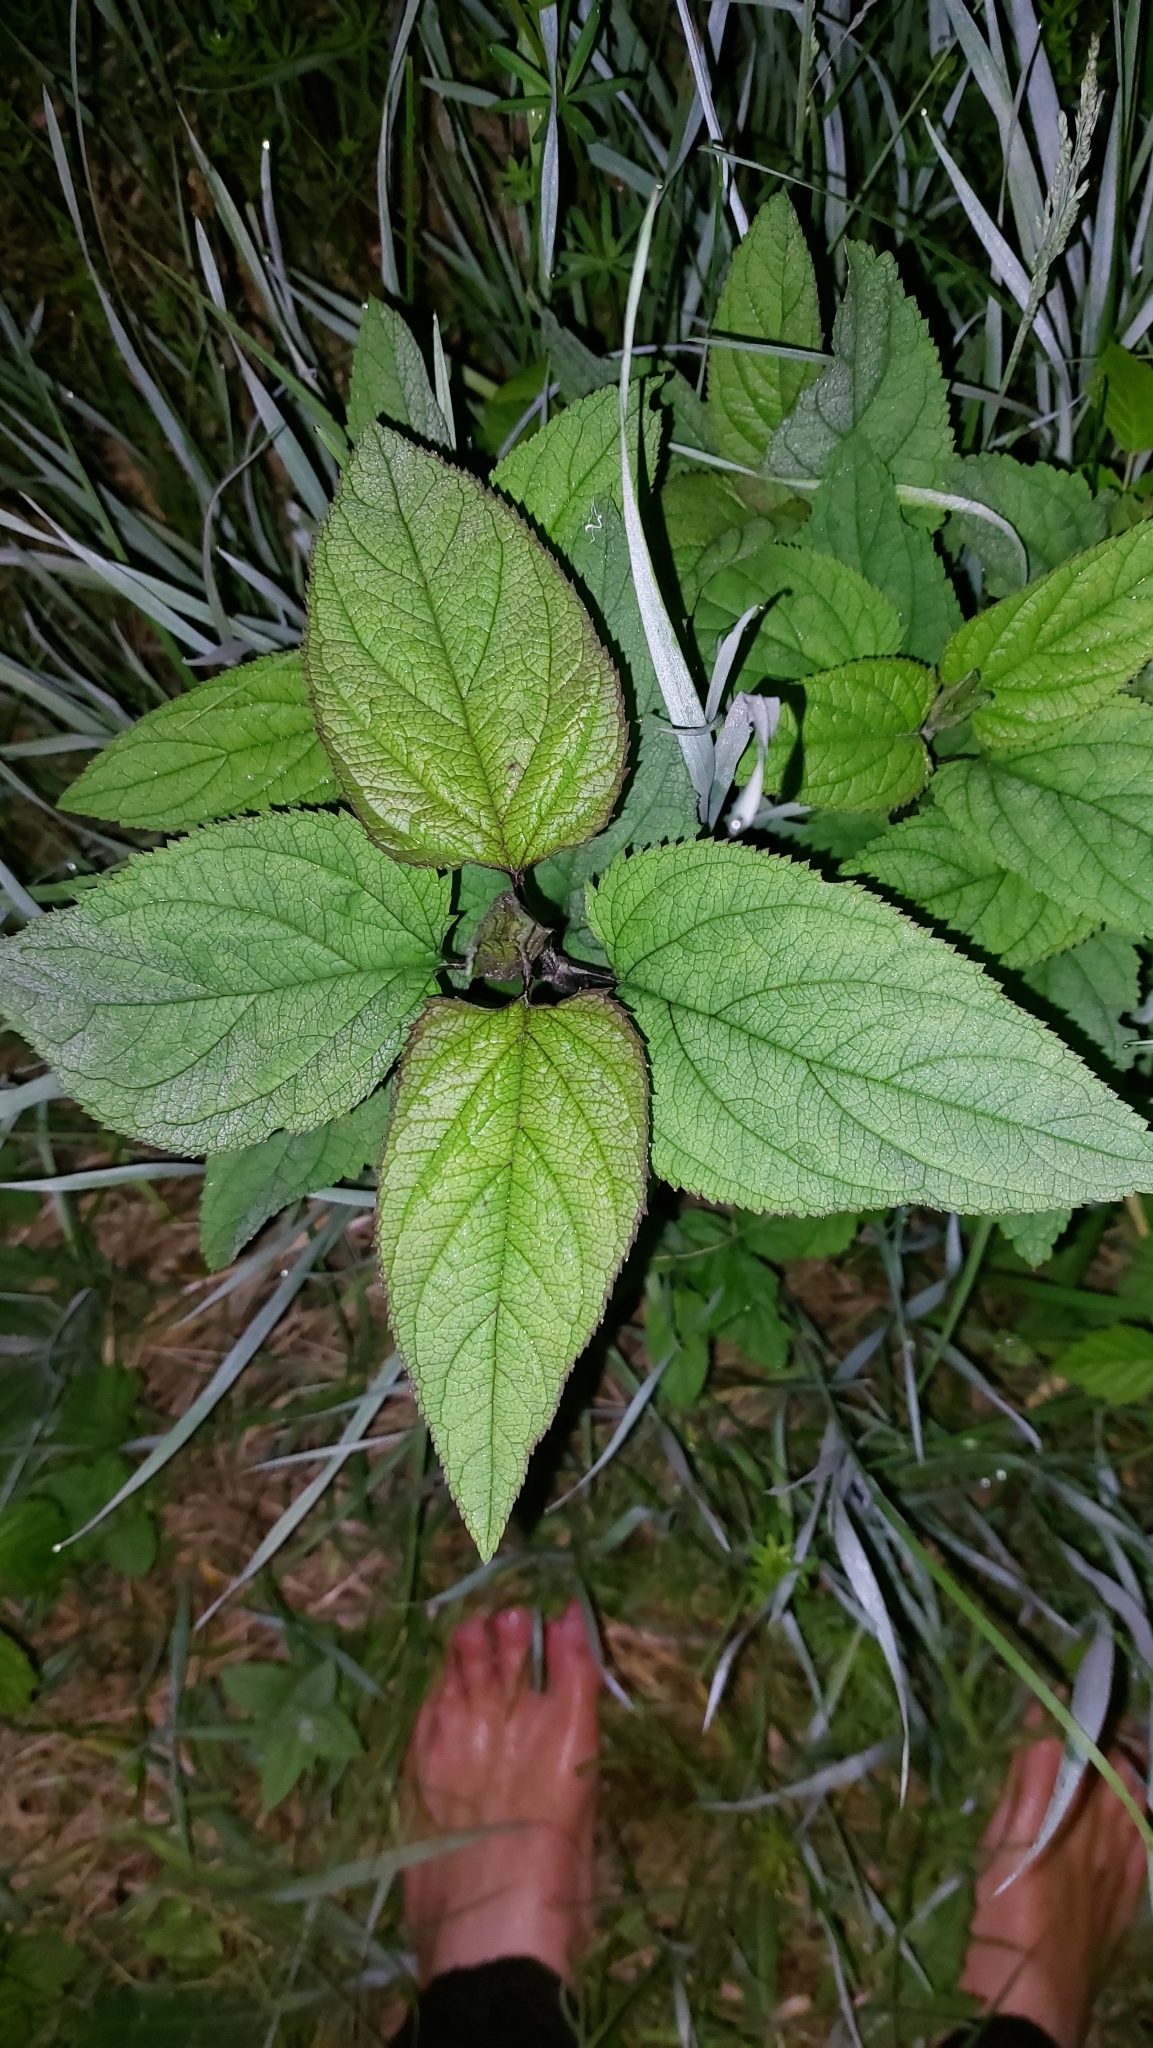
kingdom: Plantae
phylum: Tracheophyta
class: Magnoliopsida
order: Lamiales
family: Scrophulariaceae
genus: Scrophularia
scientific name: Scrophularia nodosa
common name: Common figwort
